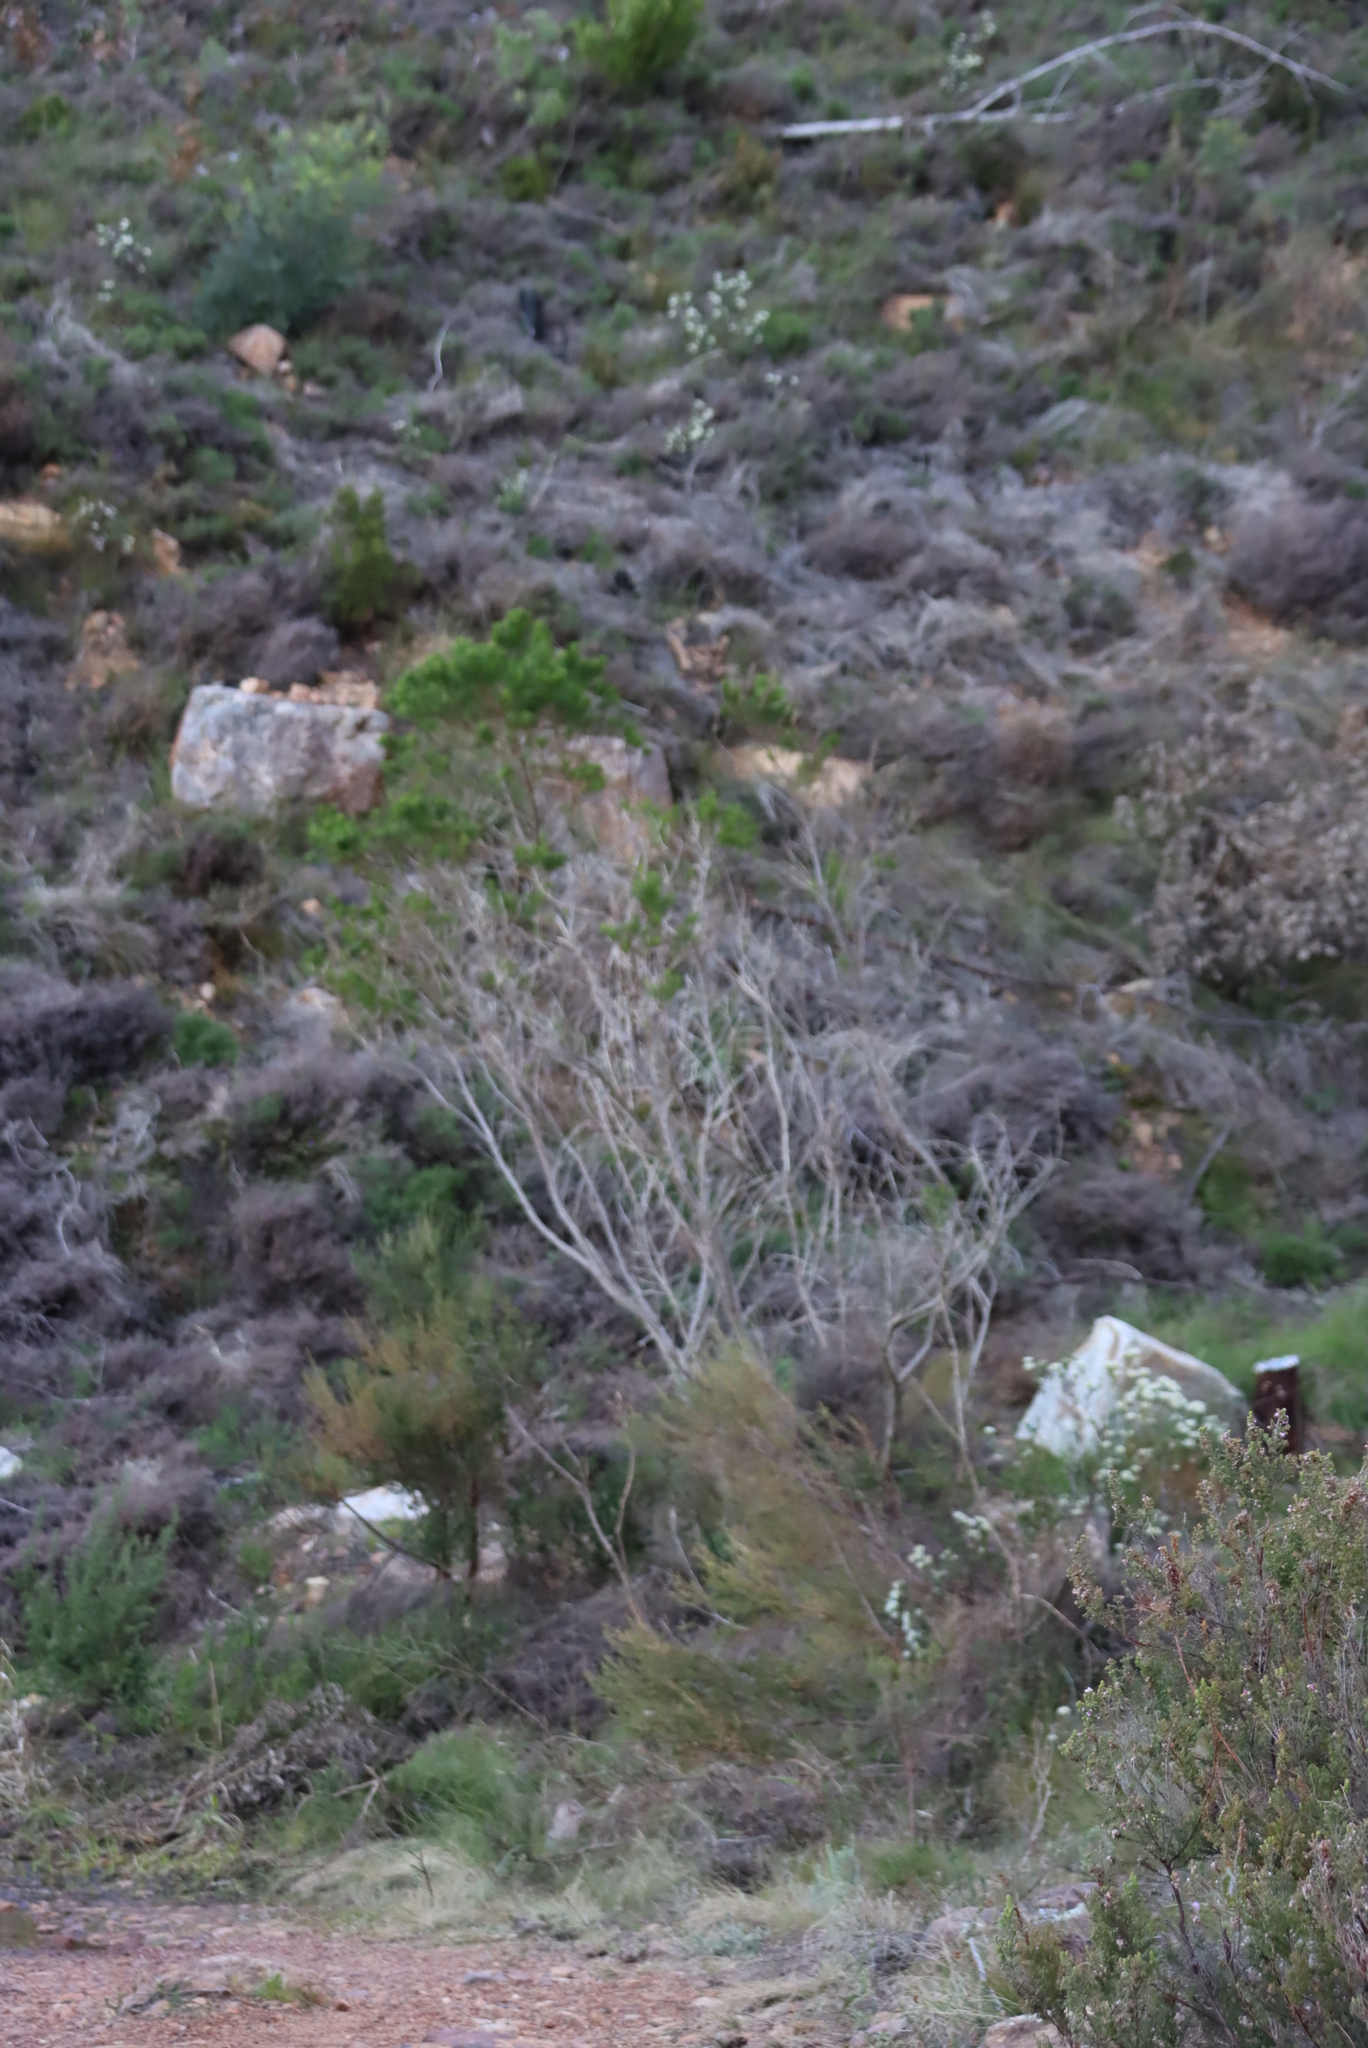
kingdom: Plantae
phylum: Tracheophyta
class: Magnoliopsida
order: Fabales
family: Fabaceae
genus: Psoralea
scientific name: Psoralea pinnata
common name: African scurfpea
